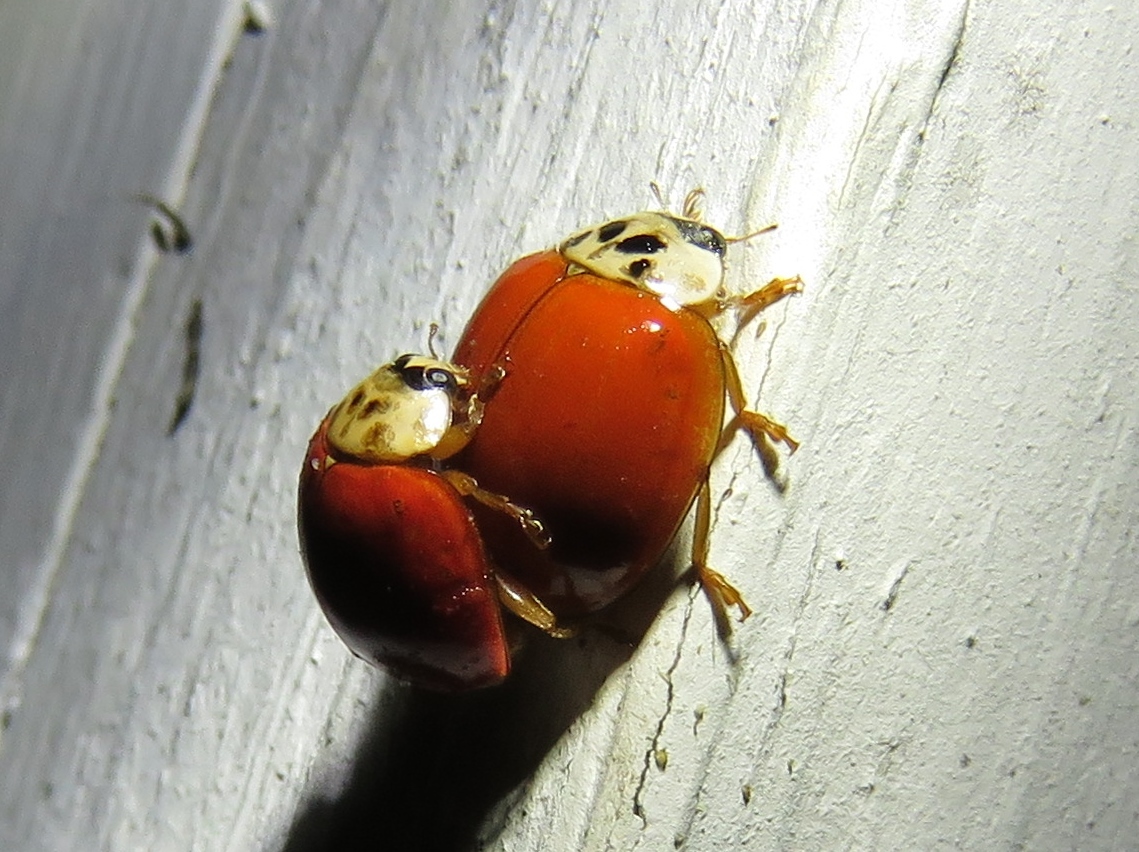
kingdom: Animalia
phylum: Arthropoda
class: Insecta
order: Coleoptera
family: Coccinellidae
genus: Harmonia
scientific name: Harmonia axyridis
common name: Harlequin ladybird
